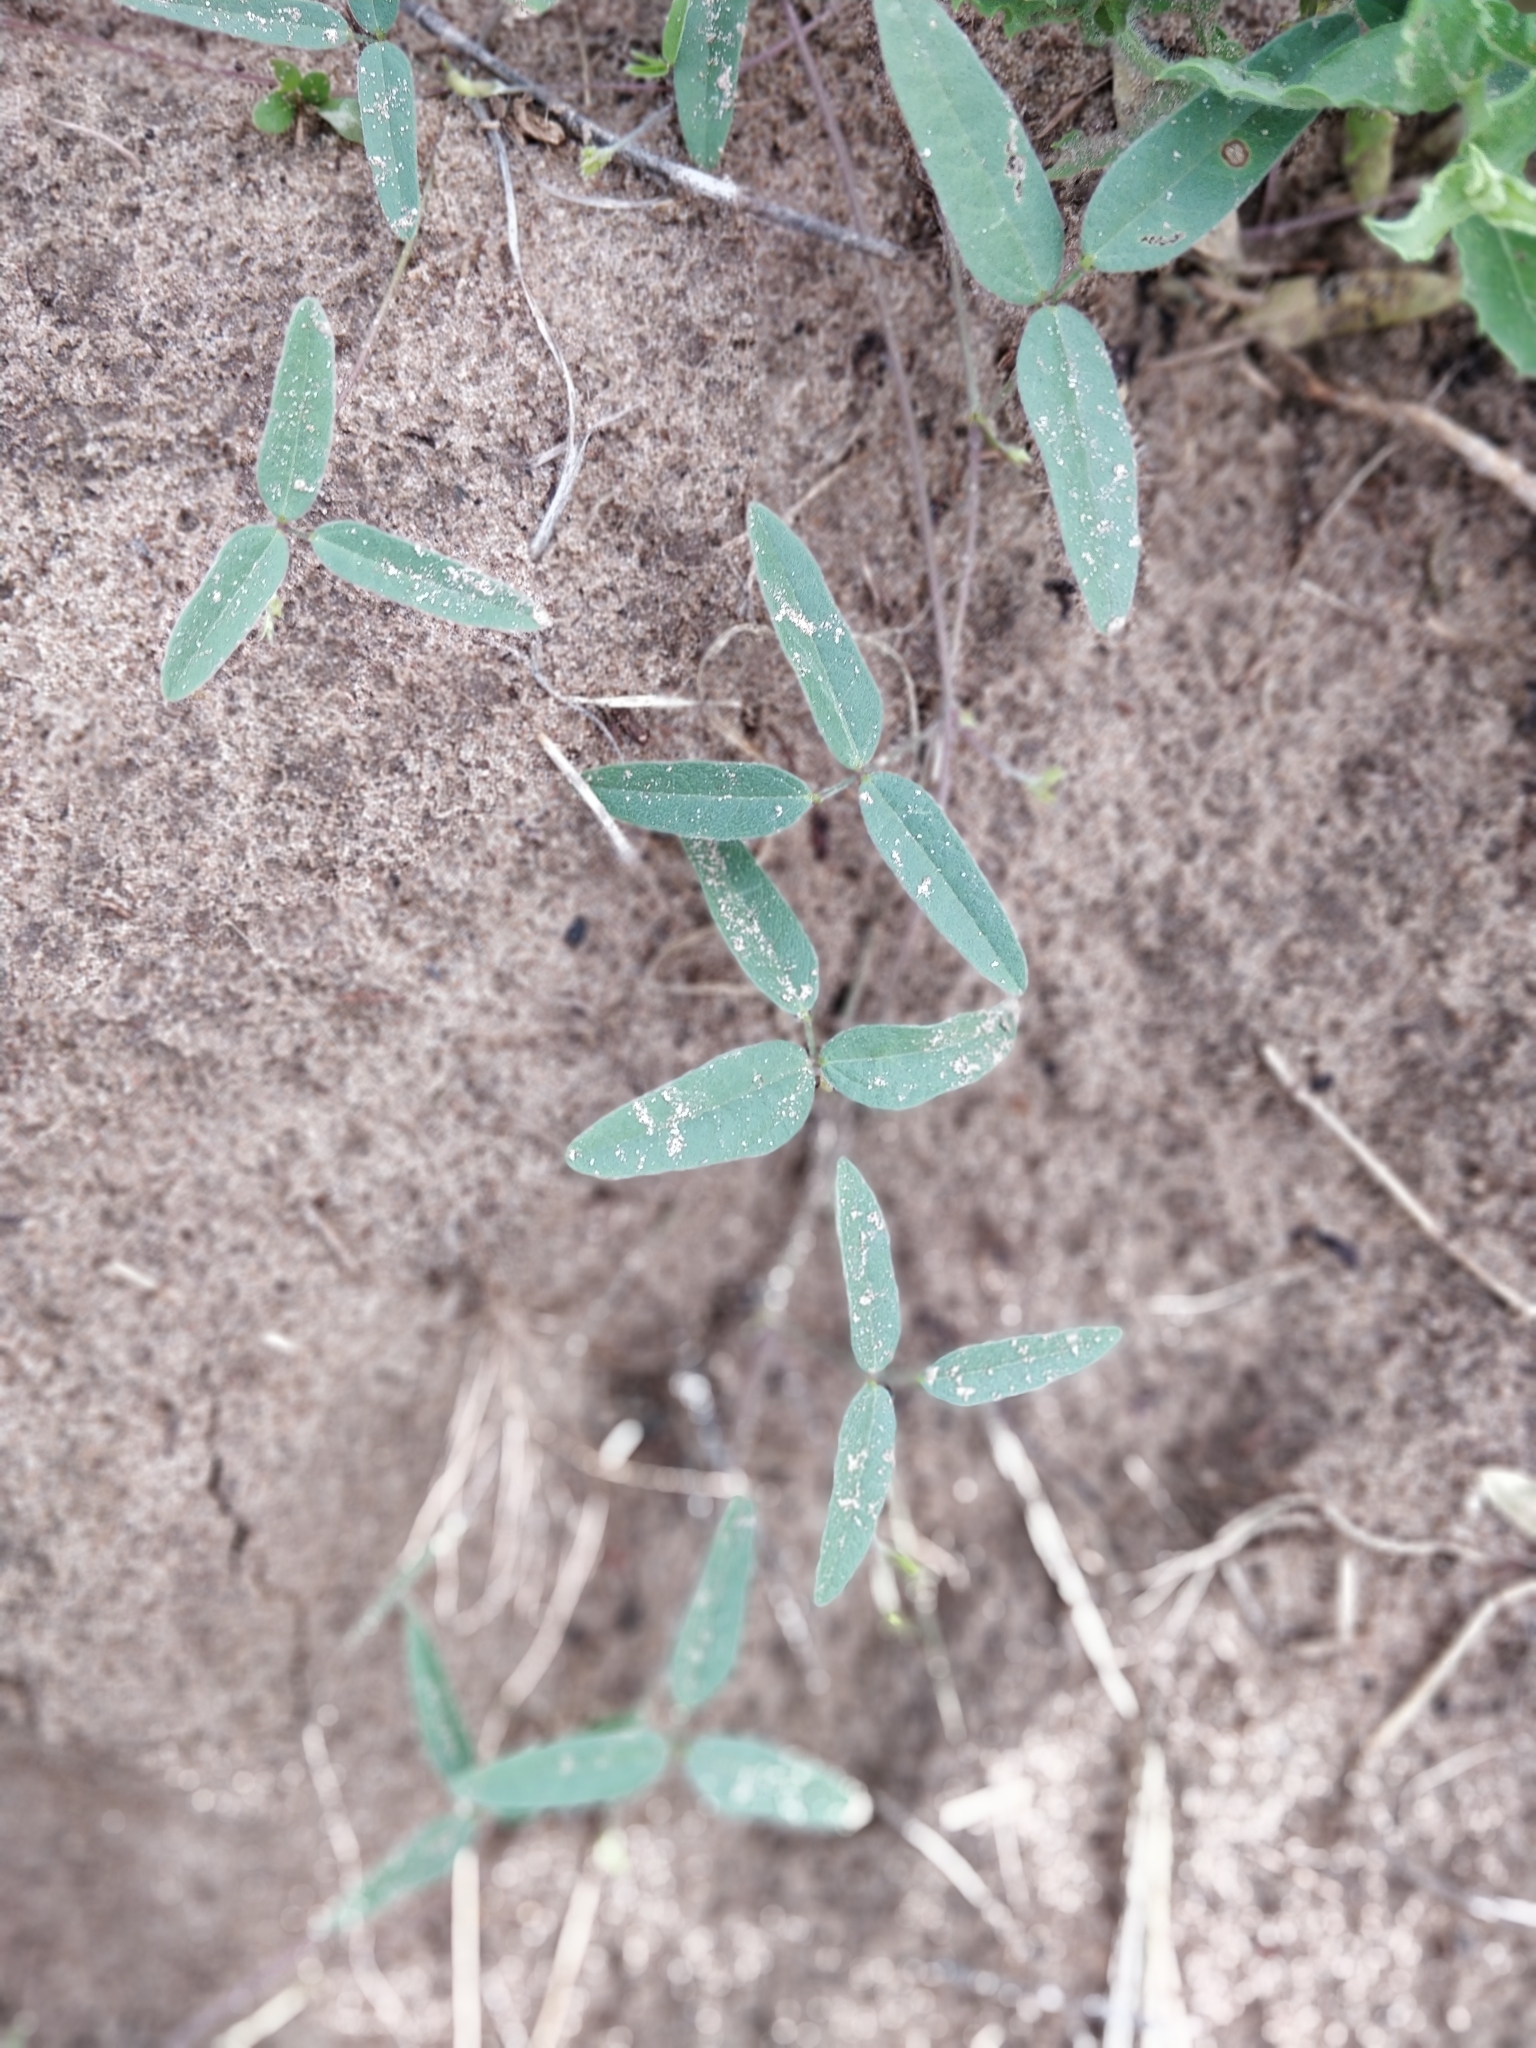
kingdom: Plantae
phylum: Tracheophyta
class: Magnoliopsida
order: Fabales
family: Fabaceae
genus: Strophostyles
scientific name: Strophostyles leiosperma
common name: Smooth-seed wild bean
